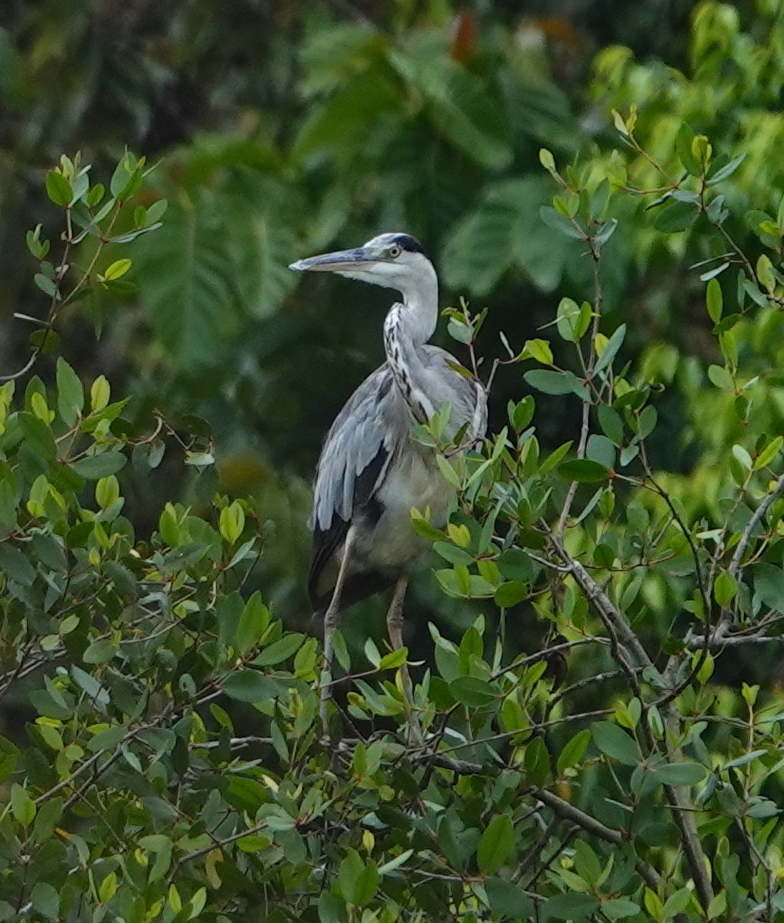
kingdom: Animalia
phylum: Chordata
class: Aves
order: Pelecaniformes
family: Ardeidae
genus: Ardea
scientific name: Ardea cinerea
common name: Grey heron
